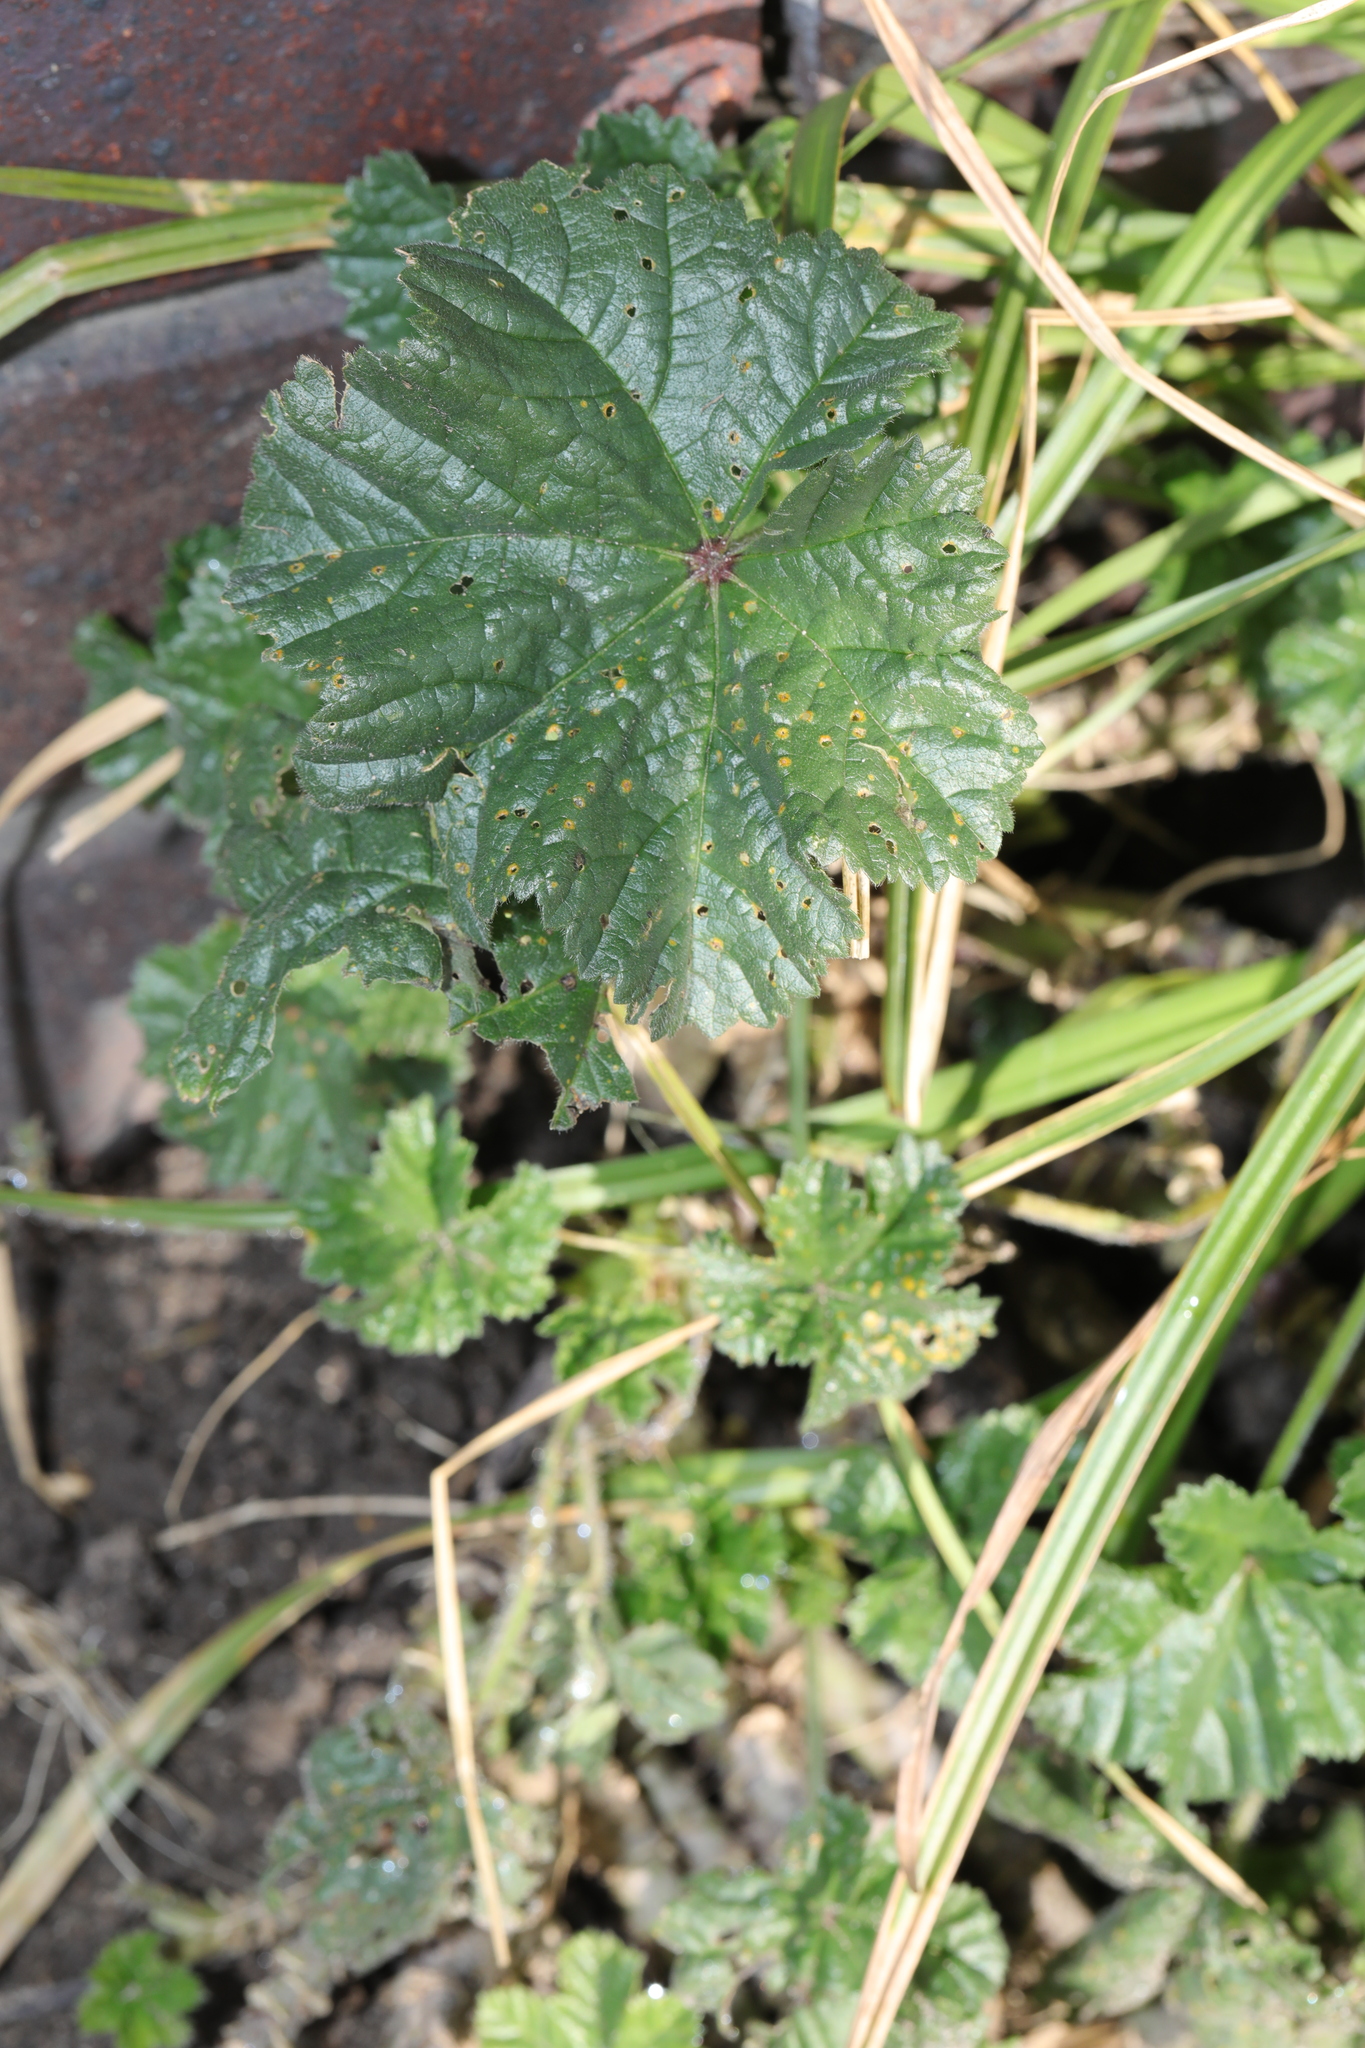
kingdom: Plantae
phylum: Tracheophyta
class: Magnoliopsida
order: Malvales
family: Malvaceae
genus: Malva
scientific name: Malva sylvestris
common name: Common mallow
